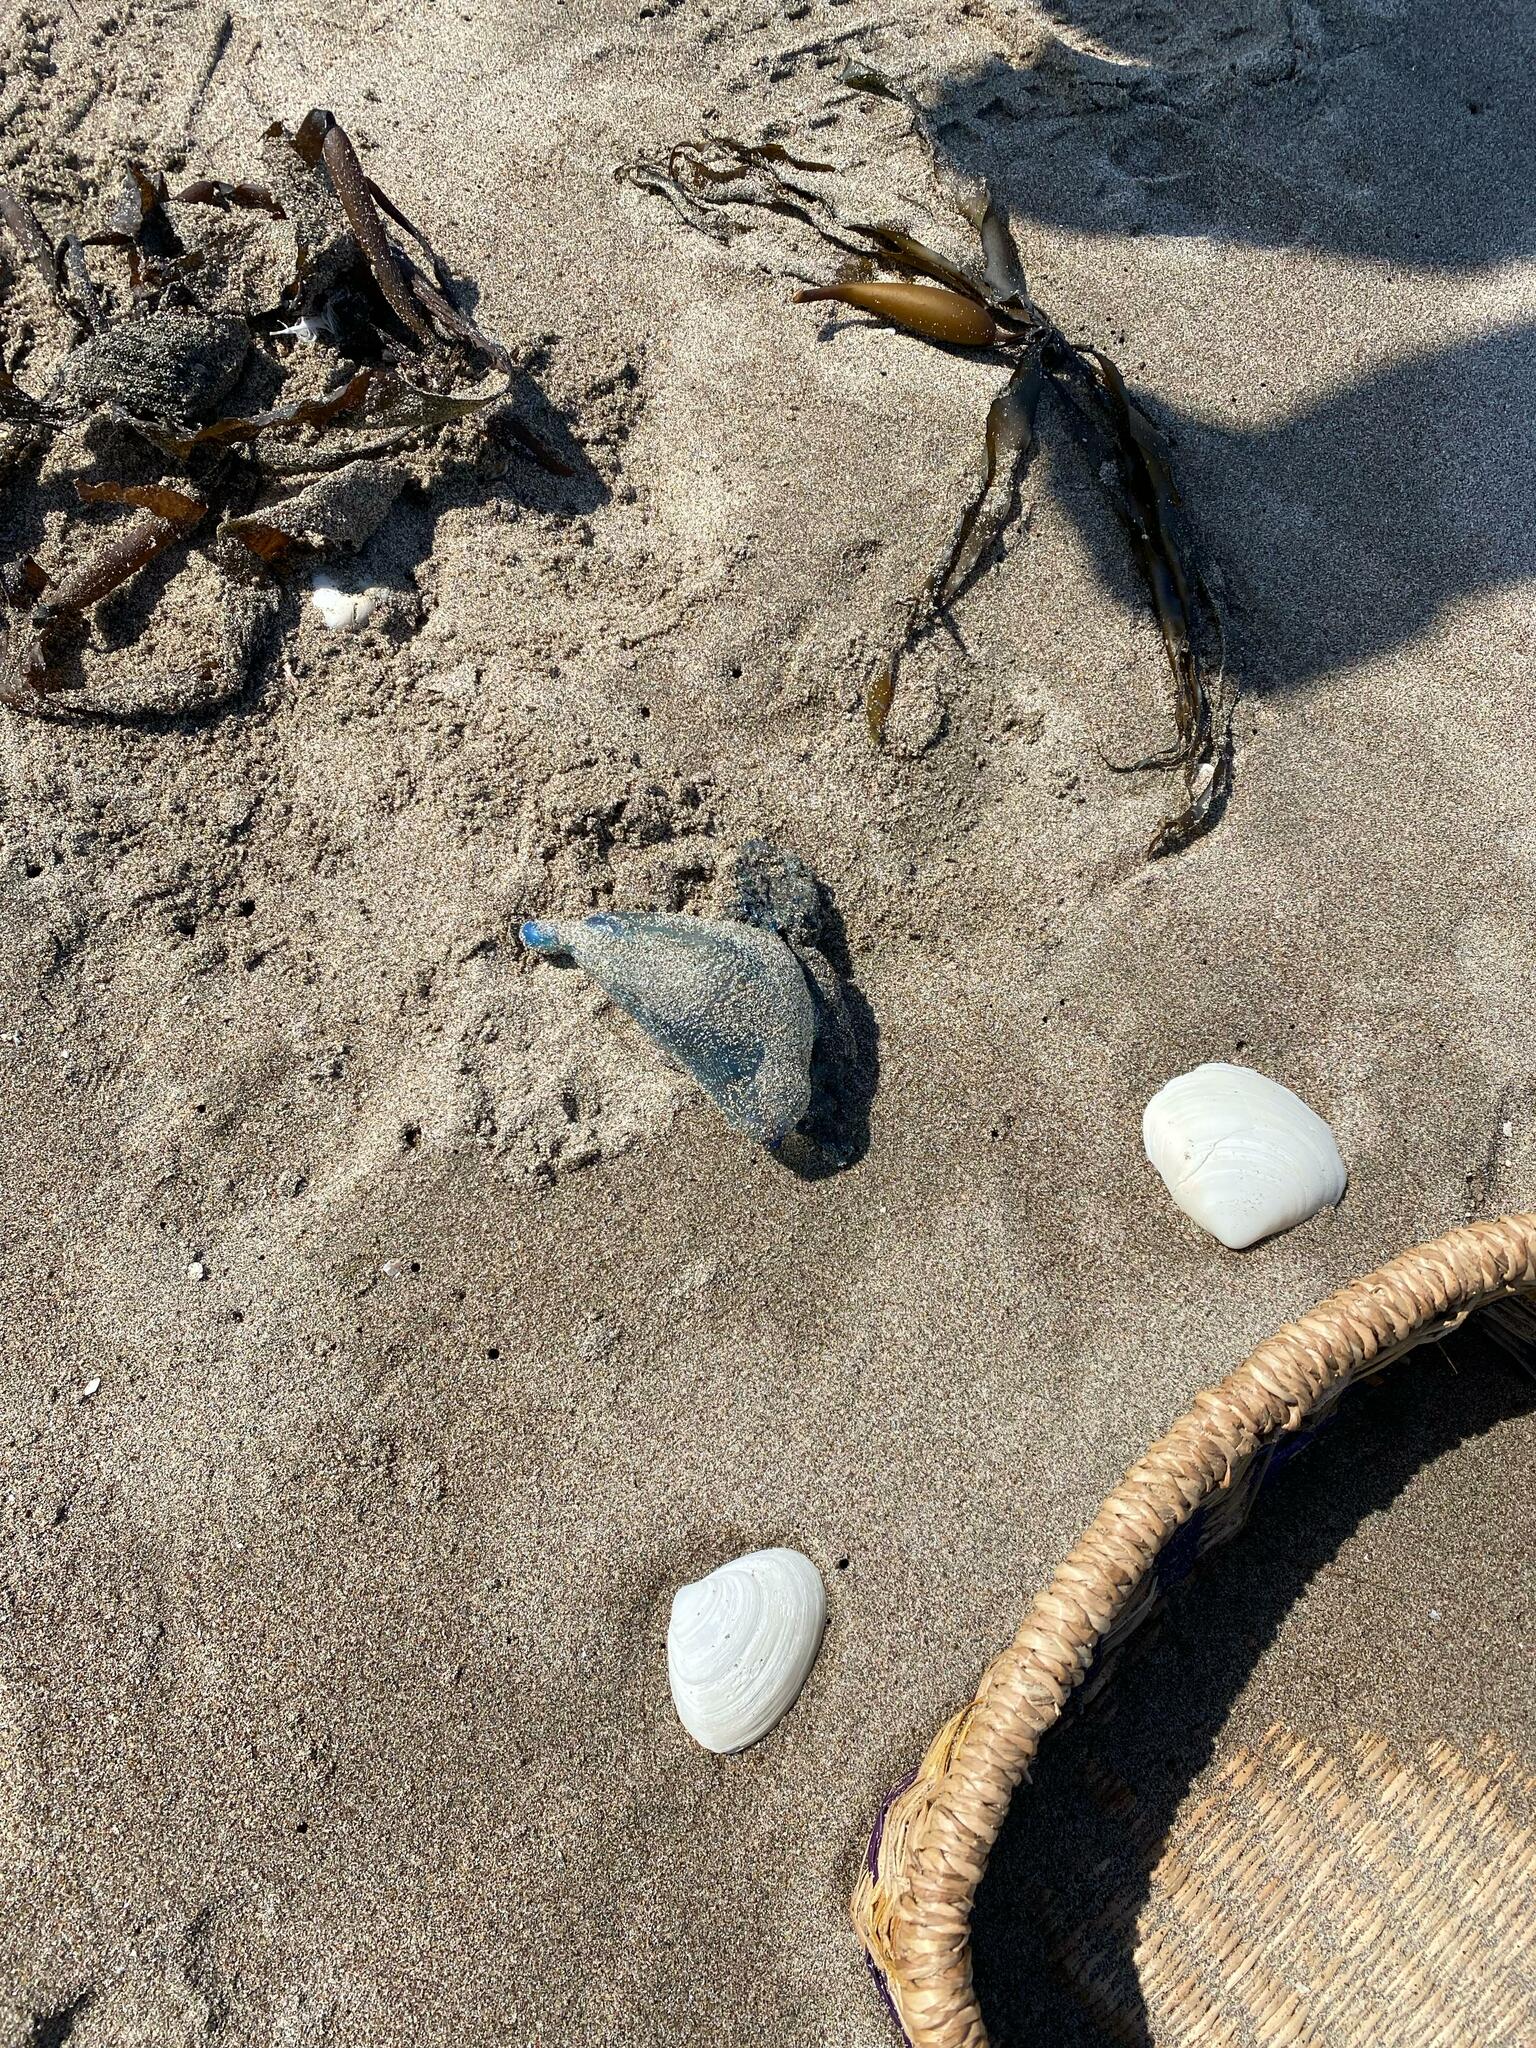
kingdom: Animalia
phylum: Cnidaria
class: Hydrozoa
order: Siphonophorae
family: Physaliidae
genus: Physalia
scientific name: Physalia physalis
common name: Portuguese man-of-war
